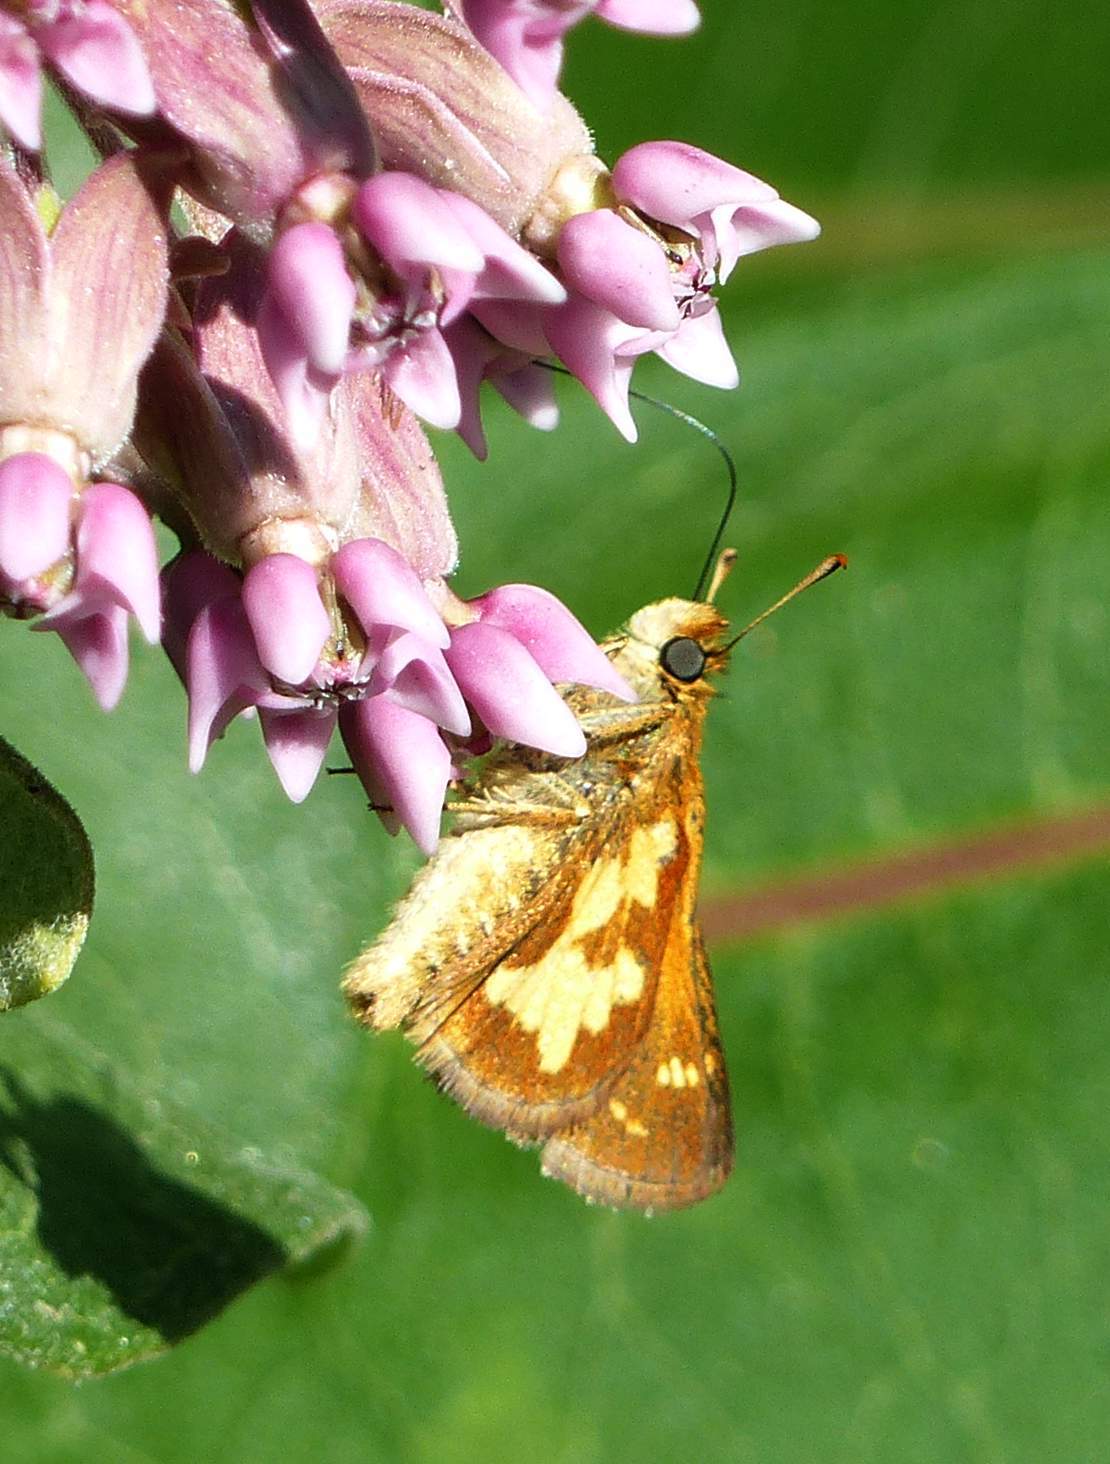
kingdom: Animalia
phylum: Arthropoda
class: Insecta
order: Lepidoptera
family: Hesperiidae
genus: Polites
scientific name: Polites coras
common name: Peck's skipper
